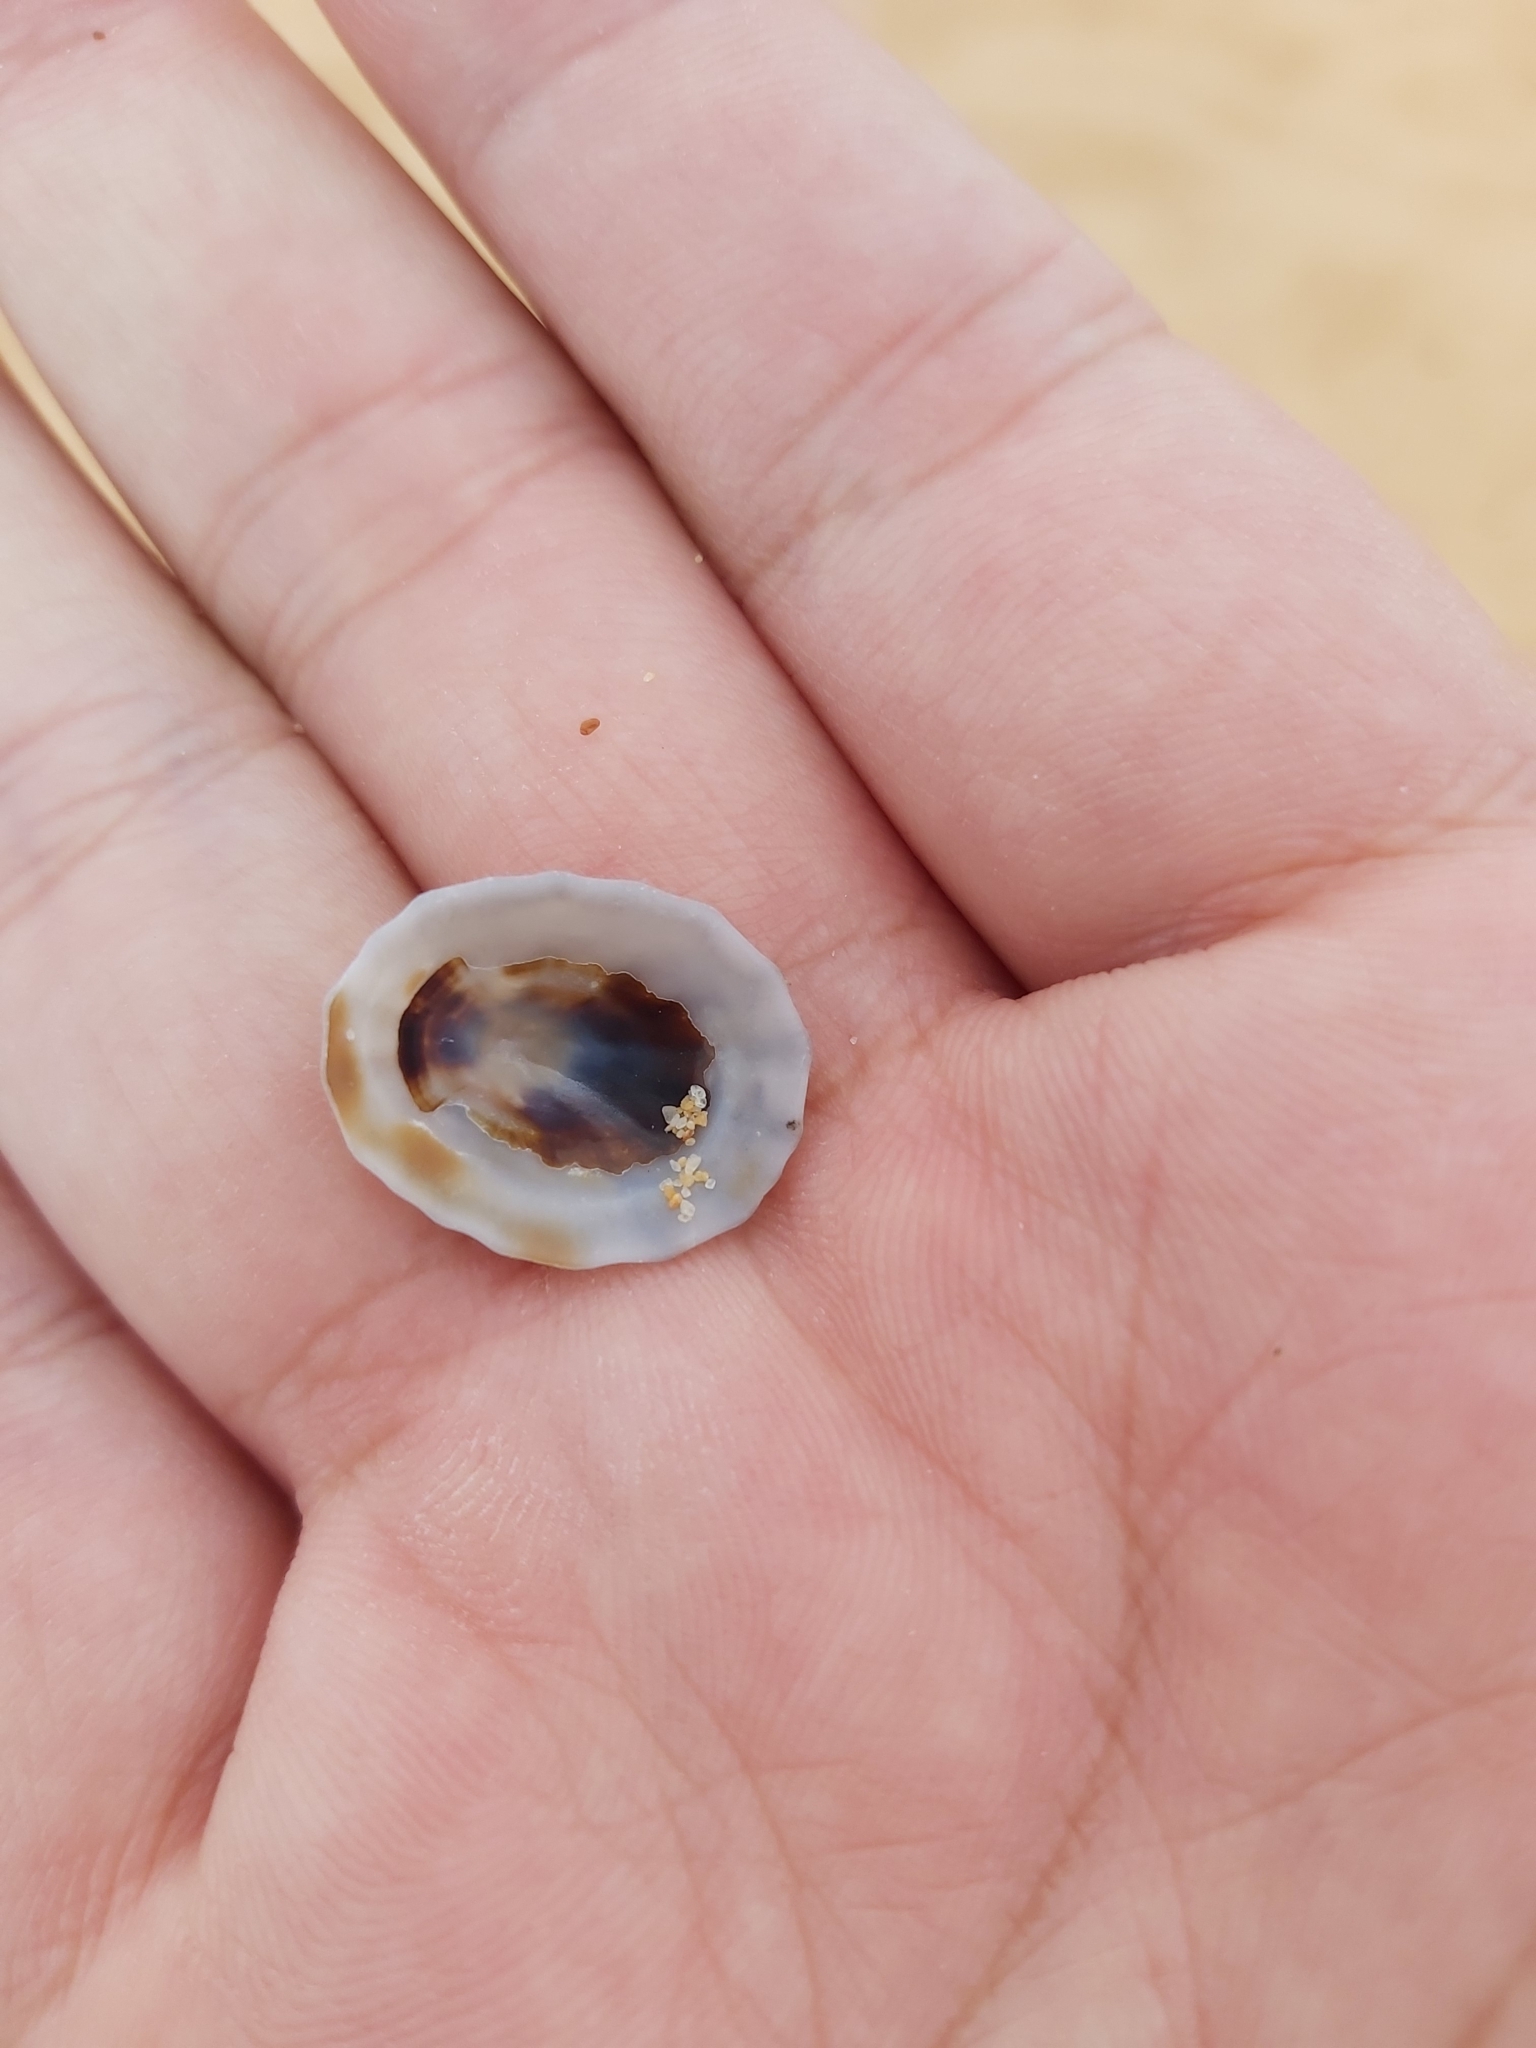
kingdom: Animalia
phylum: Mollusca
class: Gastropoda
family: Lottiidae
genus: Patelloida
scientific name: Patelloida alticostata
